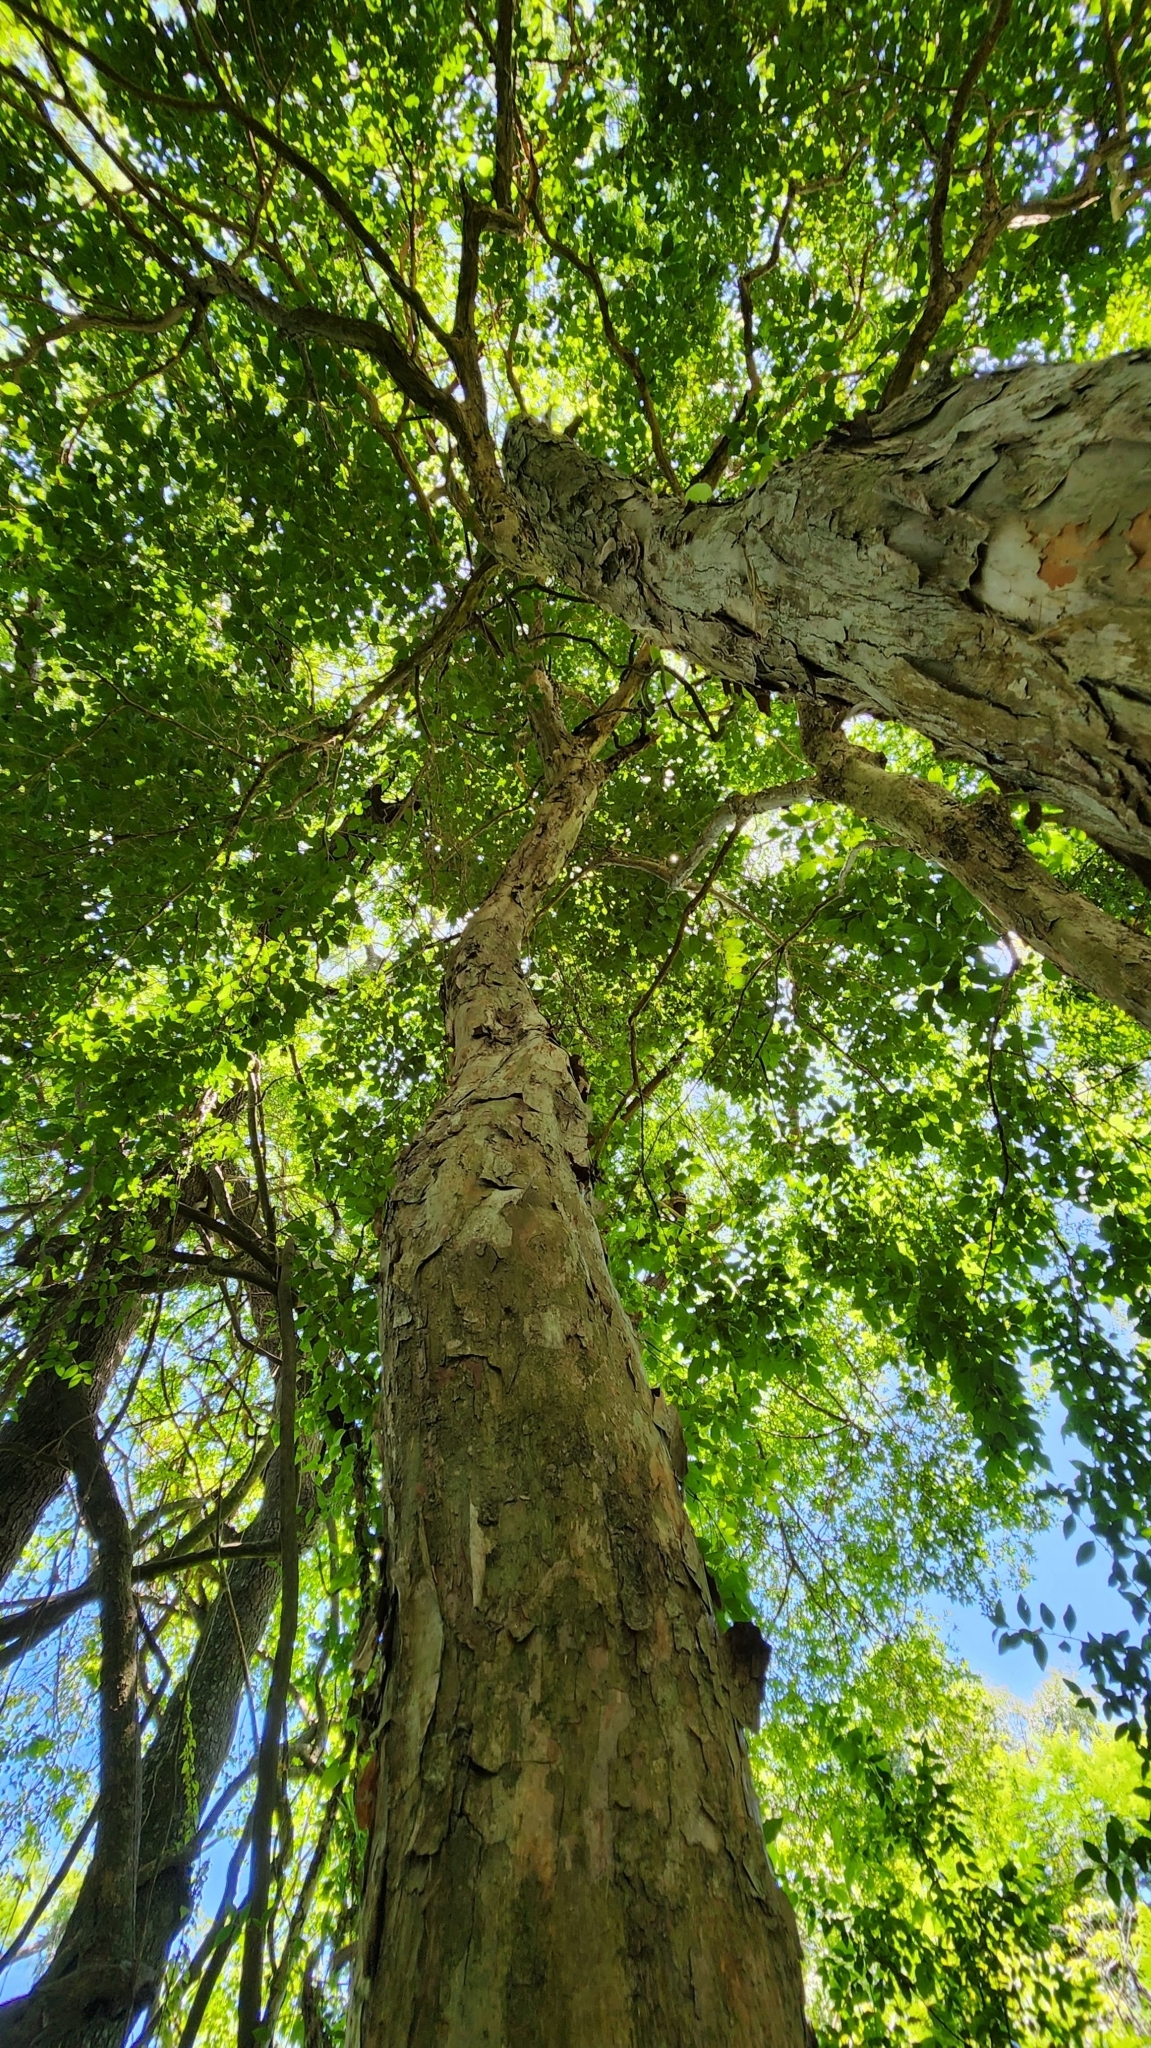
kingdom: Plantae
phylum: Tracheophyta
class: Magnoliopsida
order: Myrtales
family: Myrtaceae
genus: Campomanesia
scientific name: Campomanesia xanthocarpa
